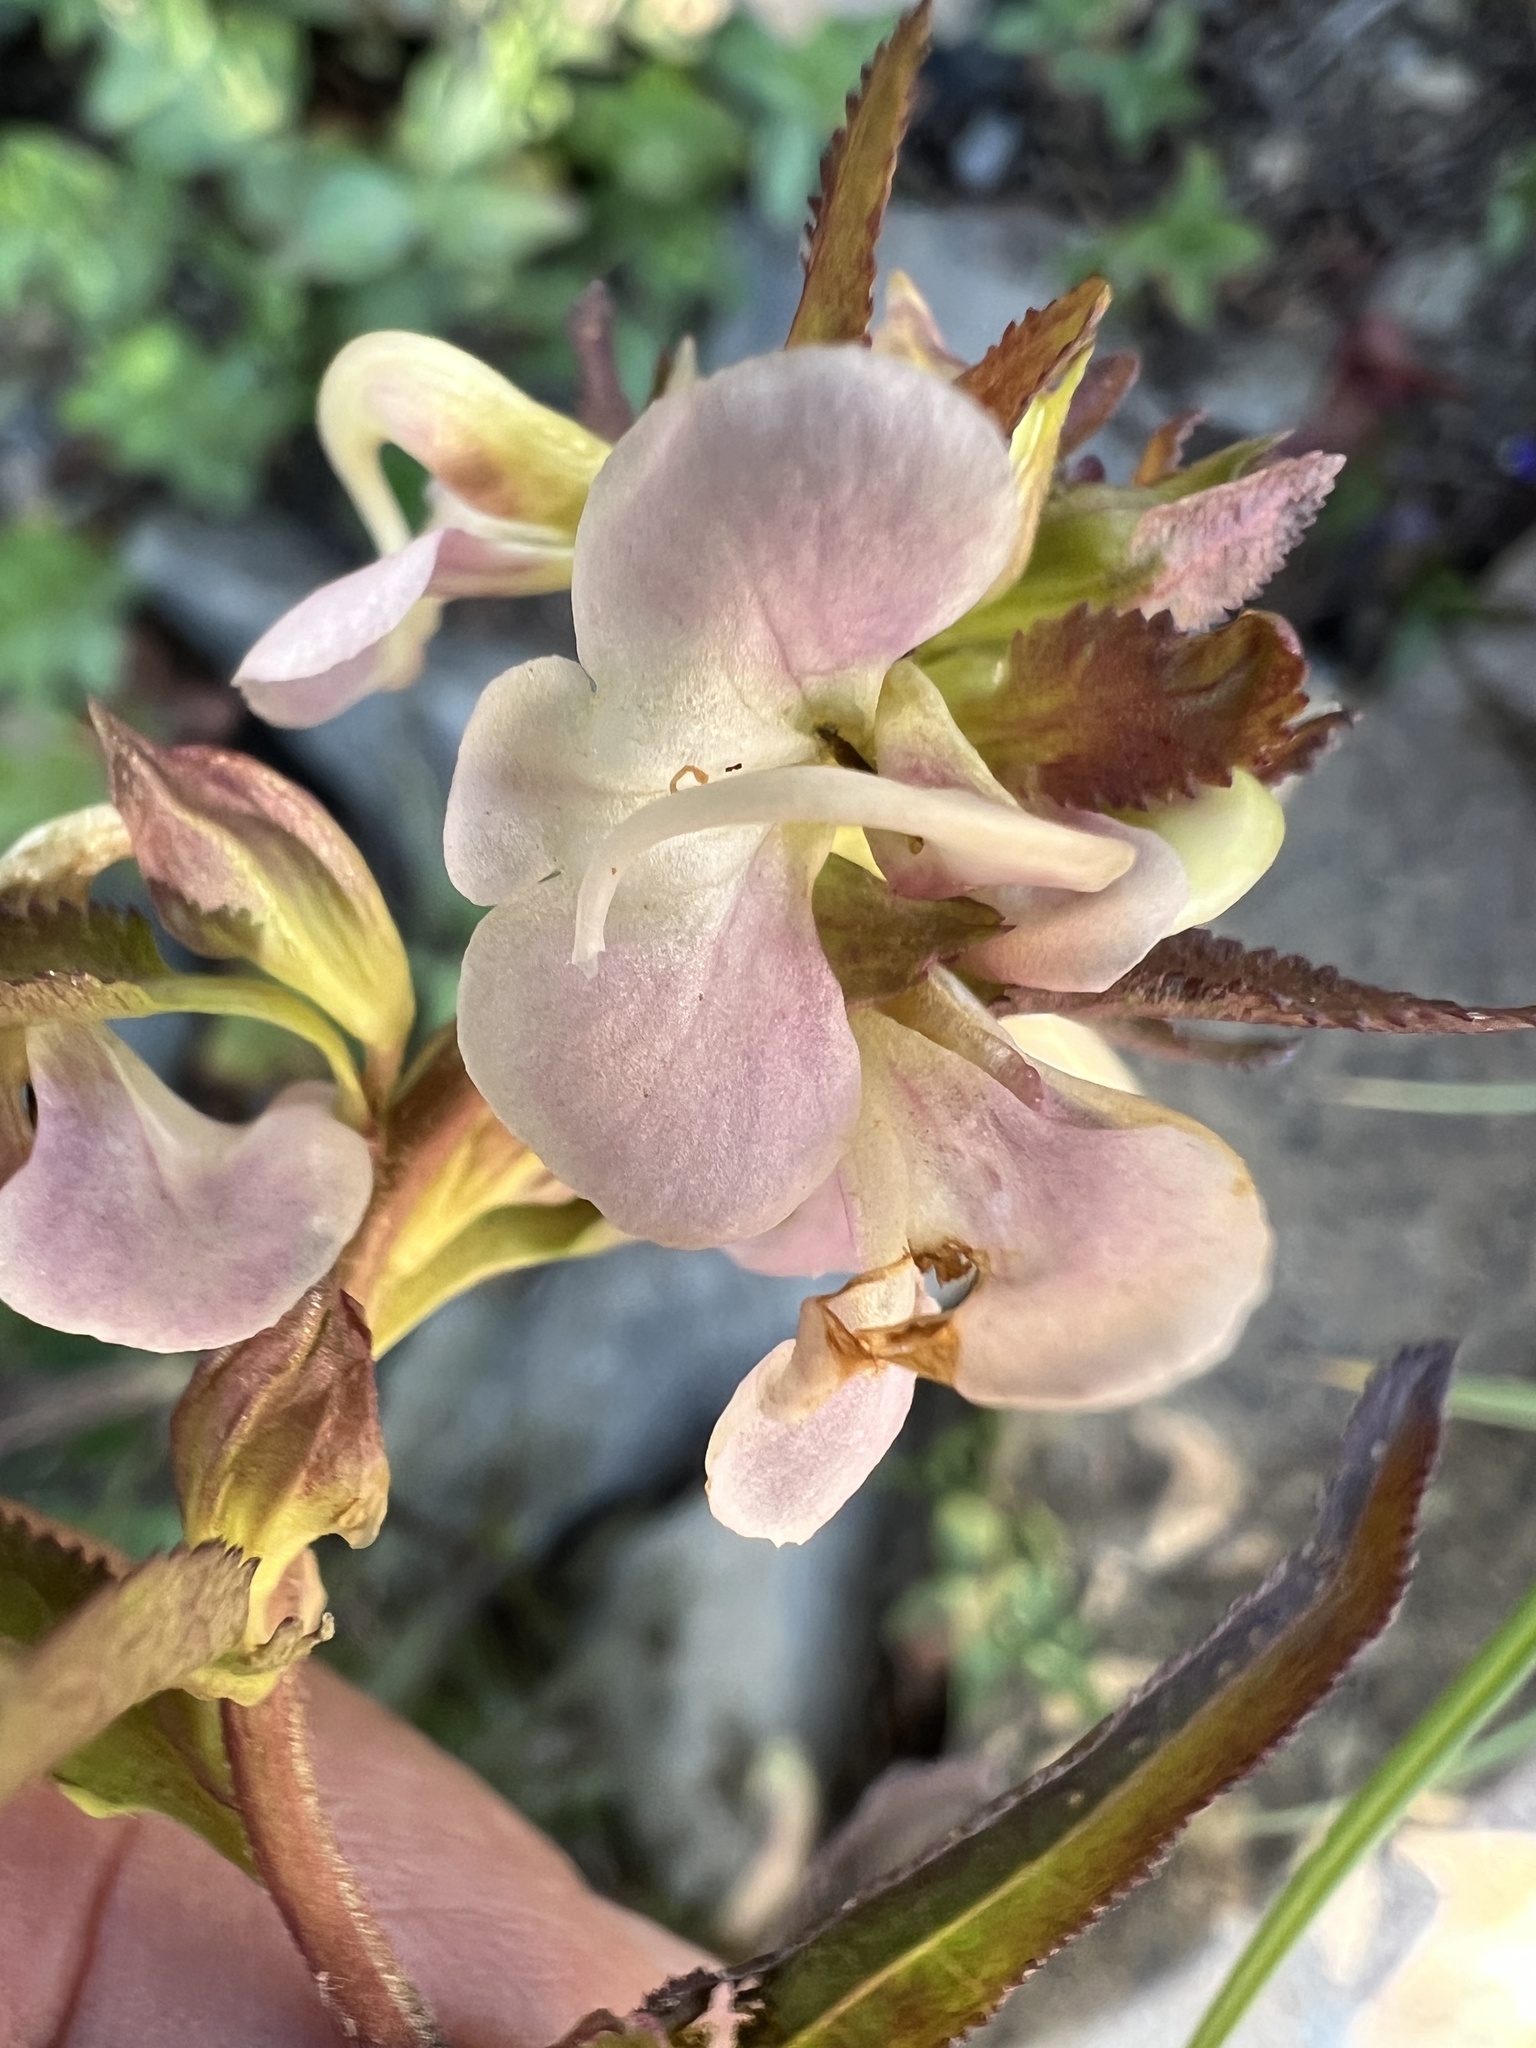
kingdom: Plantae
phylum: Tracheophyta
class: Magnoliopsida
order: Lamiales
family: Orobanchaceae
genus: Pedicularis
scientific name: Pedicularis racemosa
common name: Leafy lousewort
